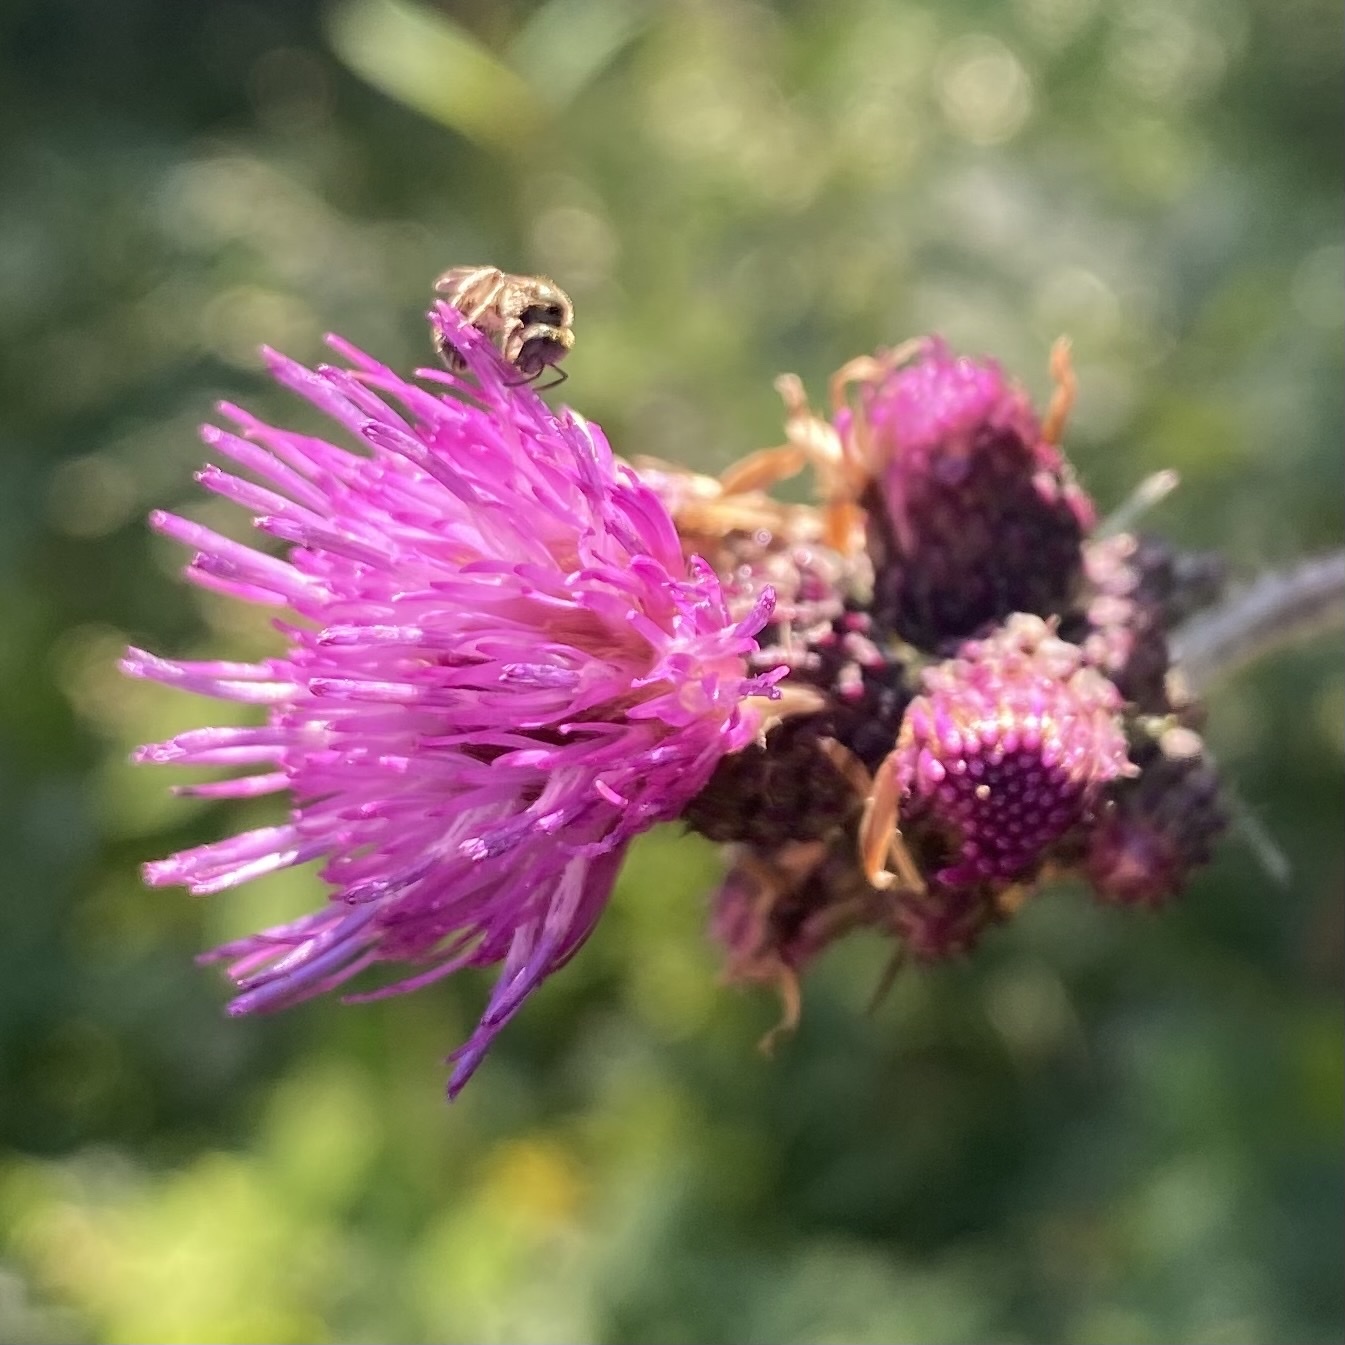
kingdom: Plantae
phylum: Tracheophyta
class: Magnoliopsida
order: Asterales
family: Asteraceae
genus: Cirsium
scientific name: Cirsium palustre
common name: Marsh thistle
